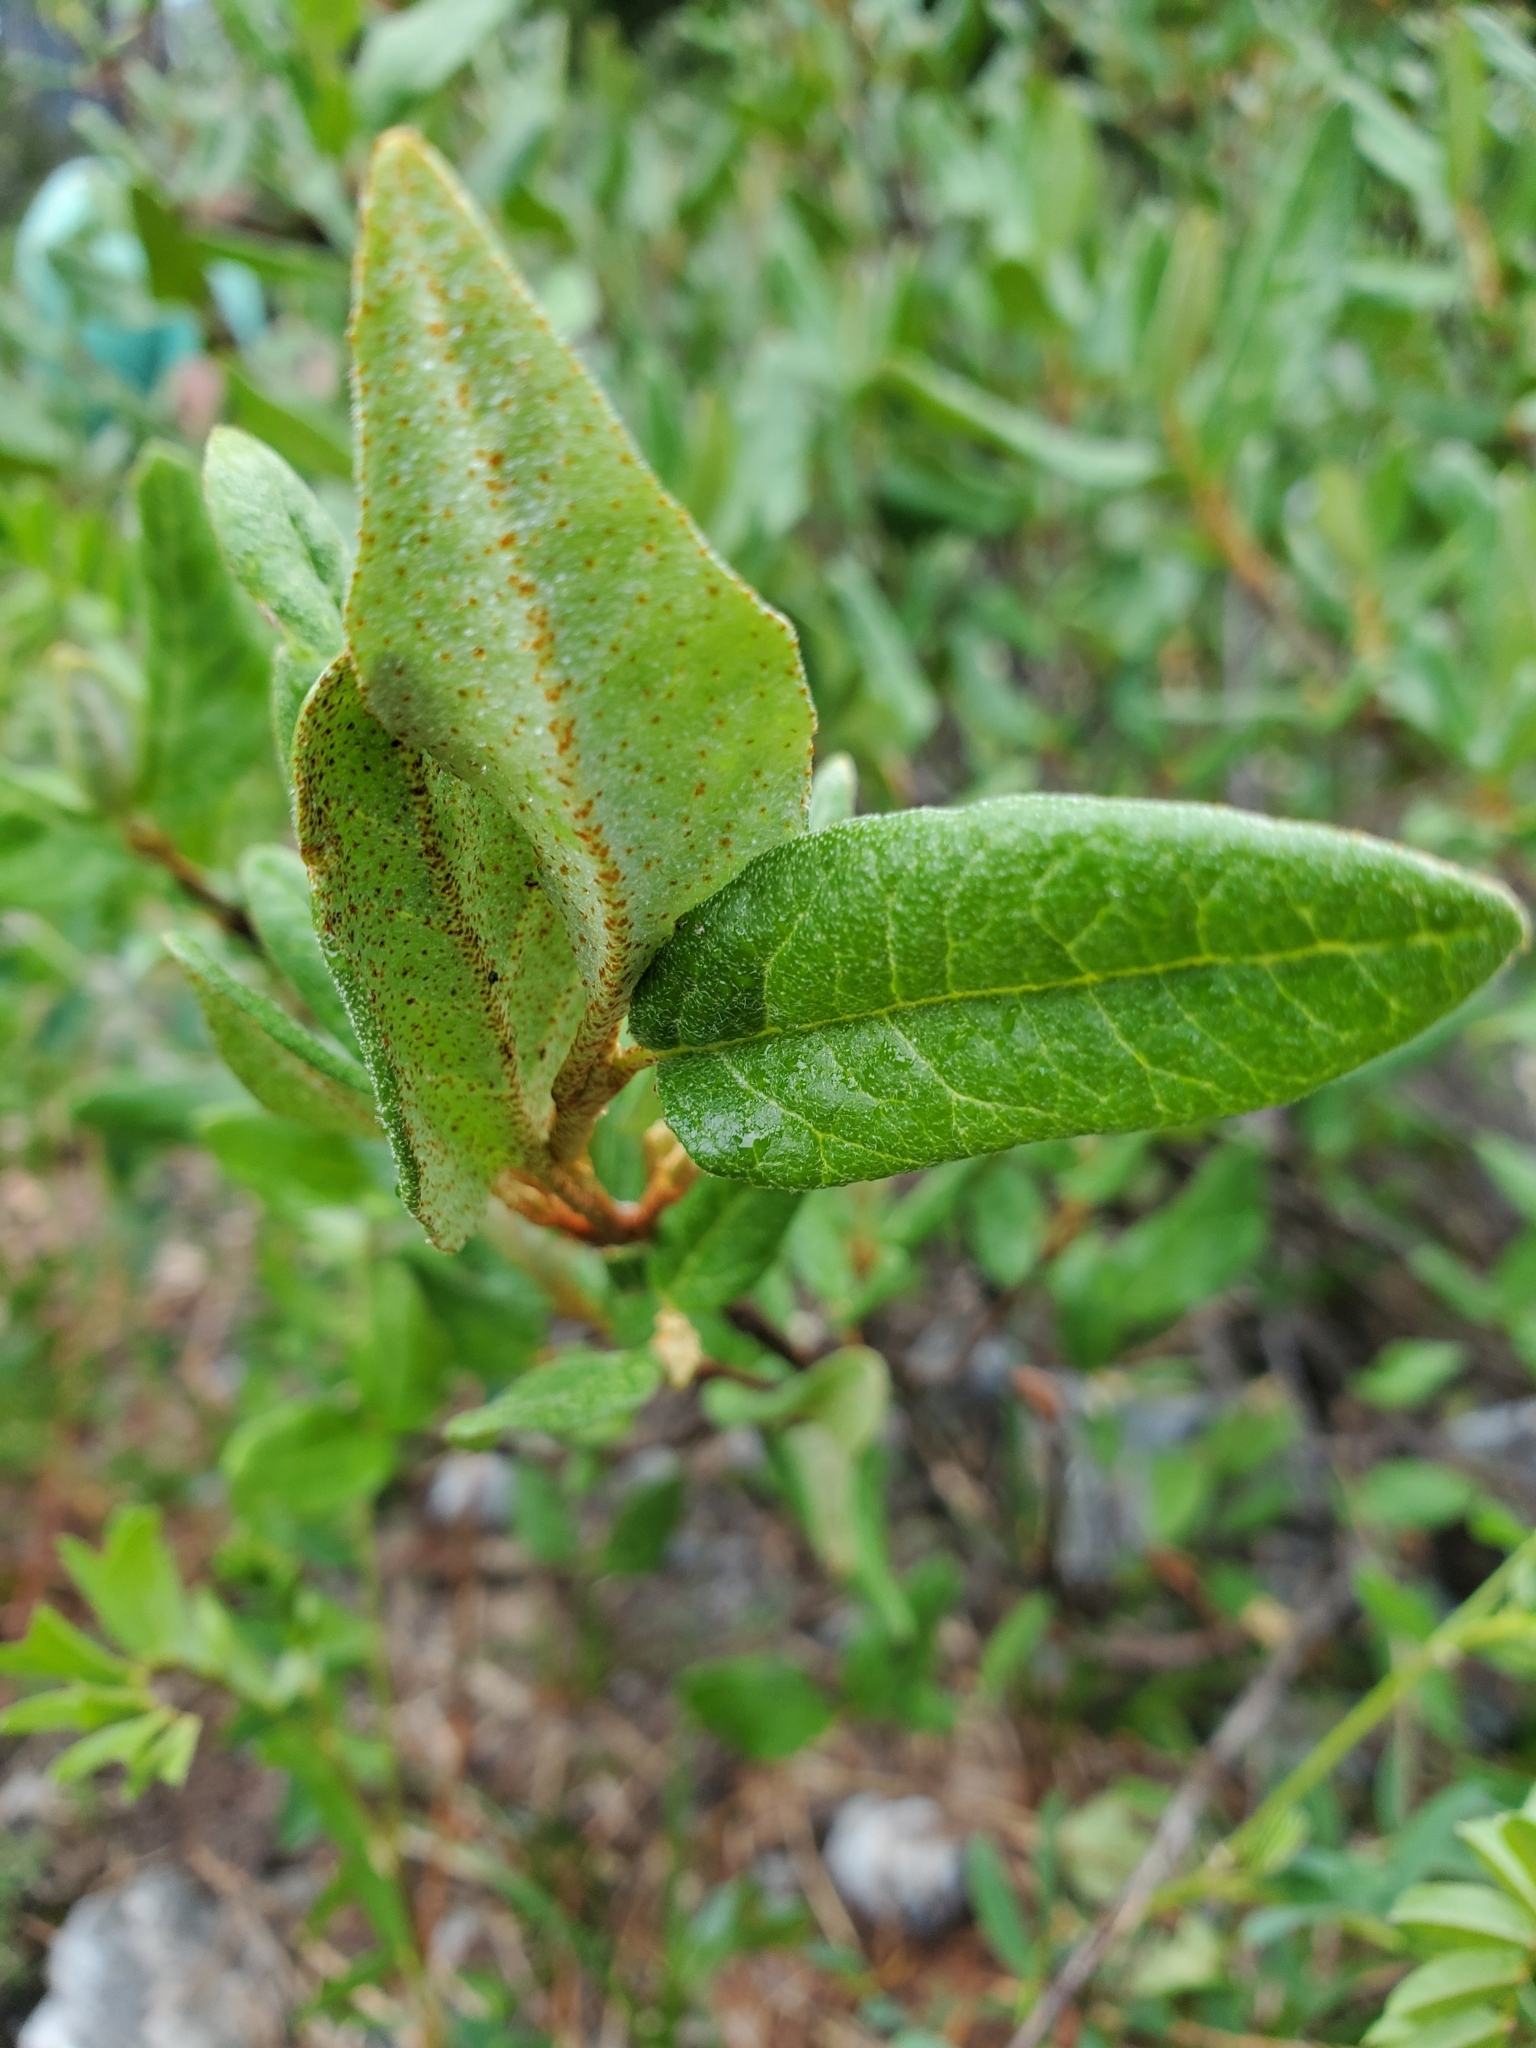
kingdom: Plantae
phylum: Tracheophyta
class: Magnoliopsida
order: Rosales
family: Elaeagnaceae
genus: Shepherdia
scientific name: Shepherdia canadensis
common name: Soapberry
